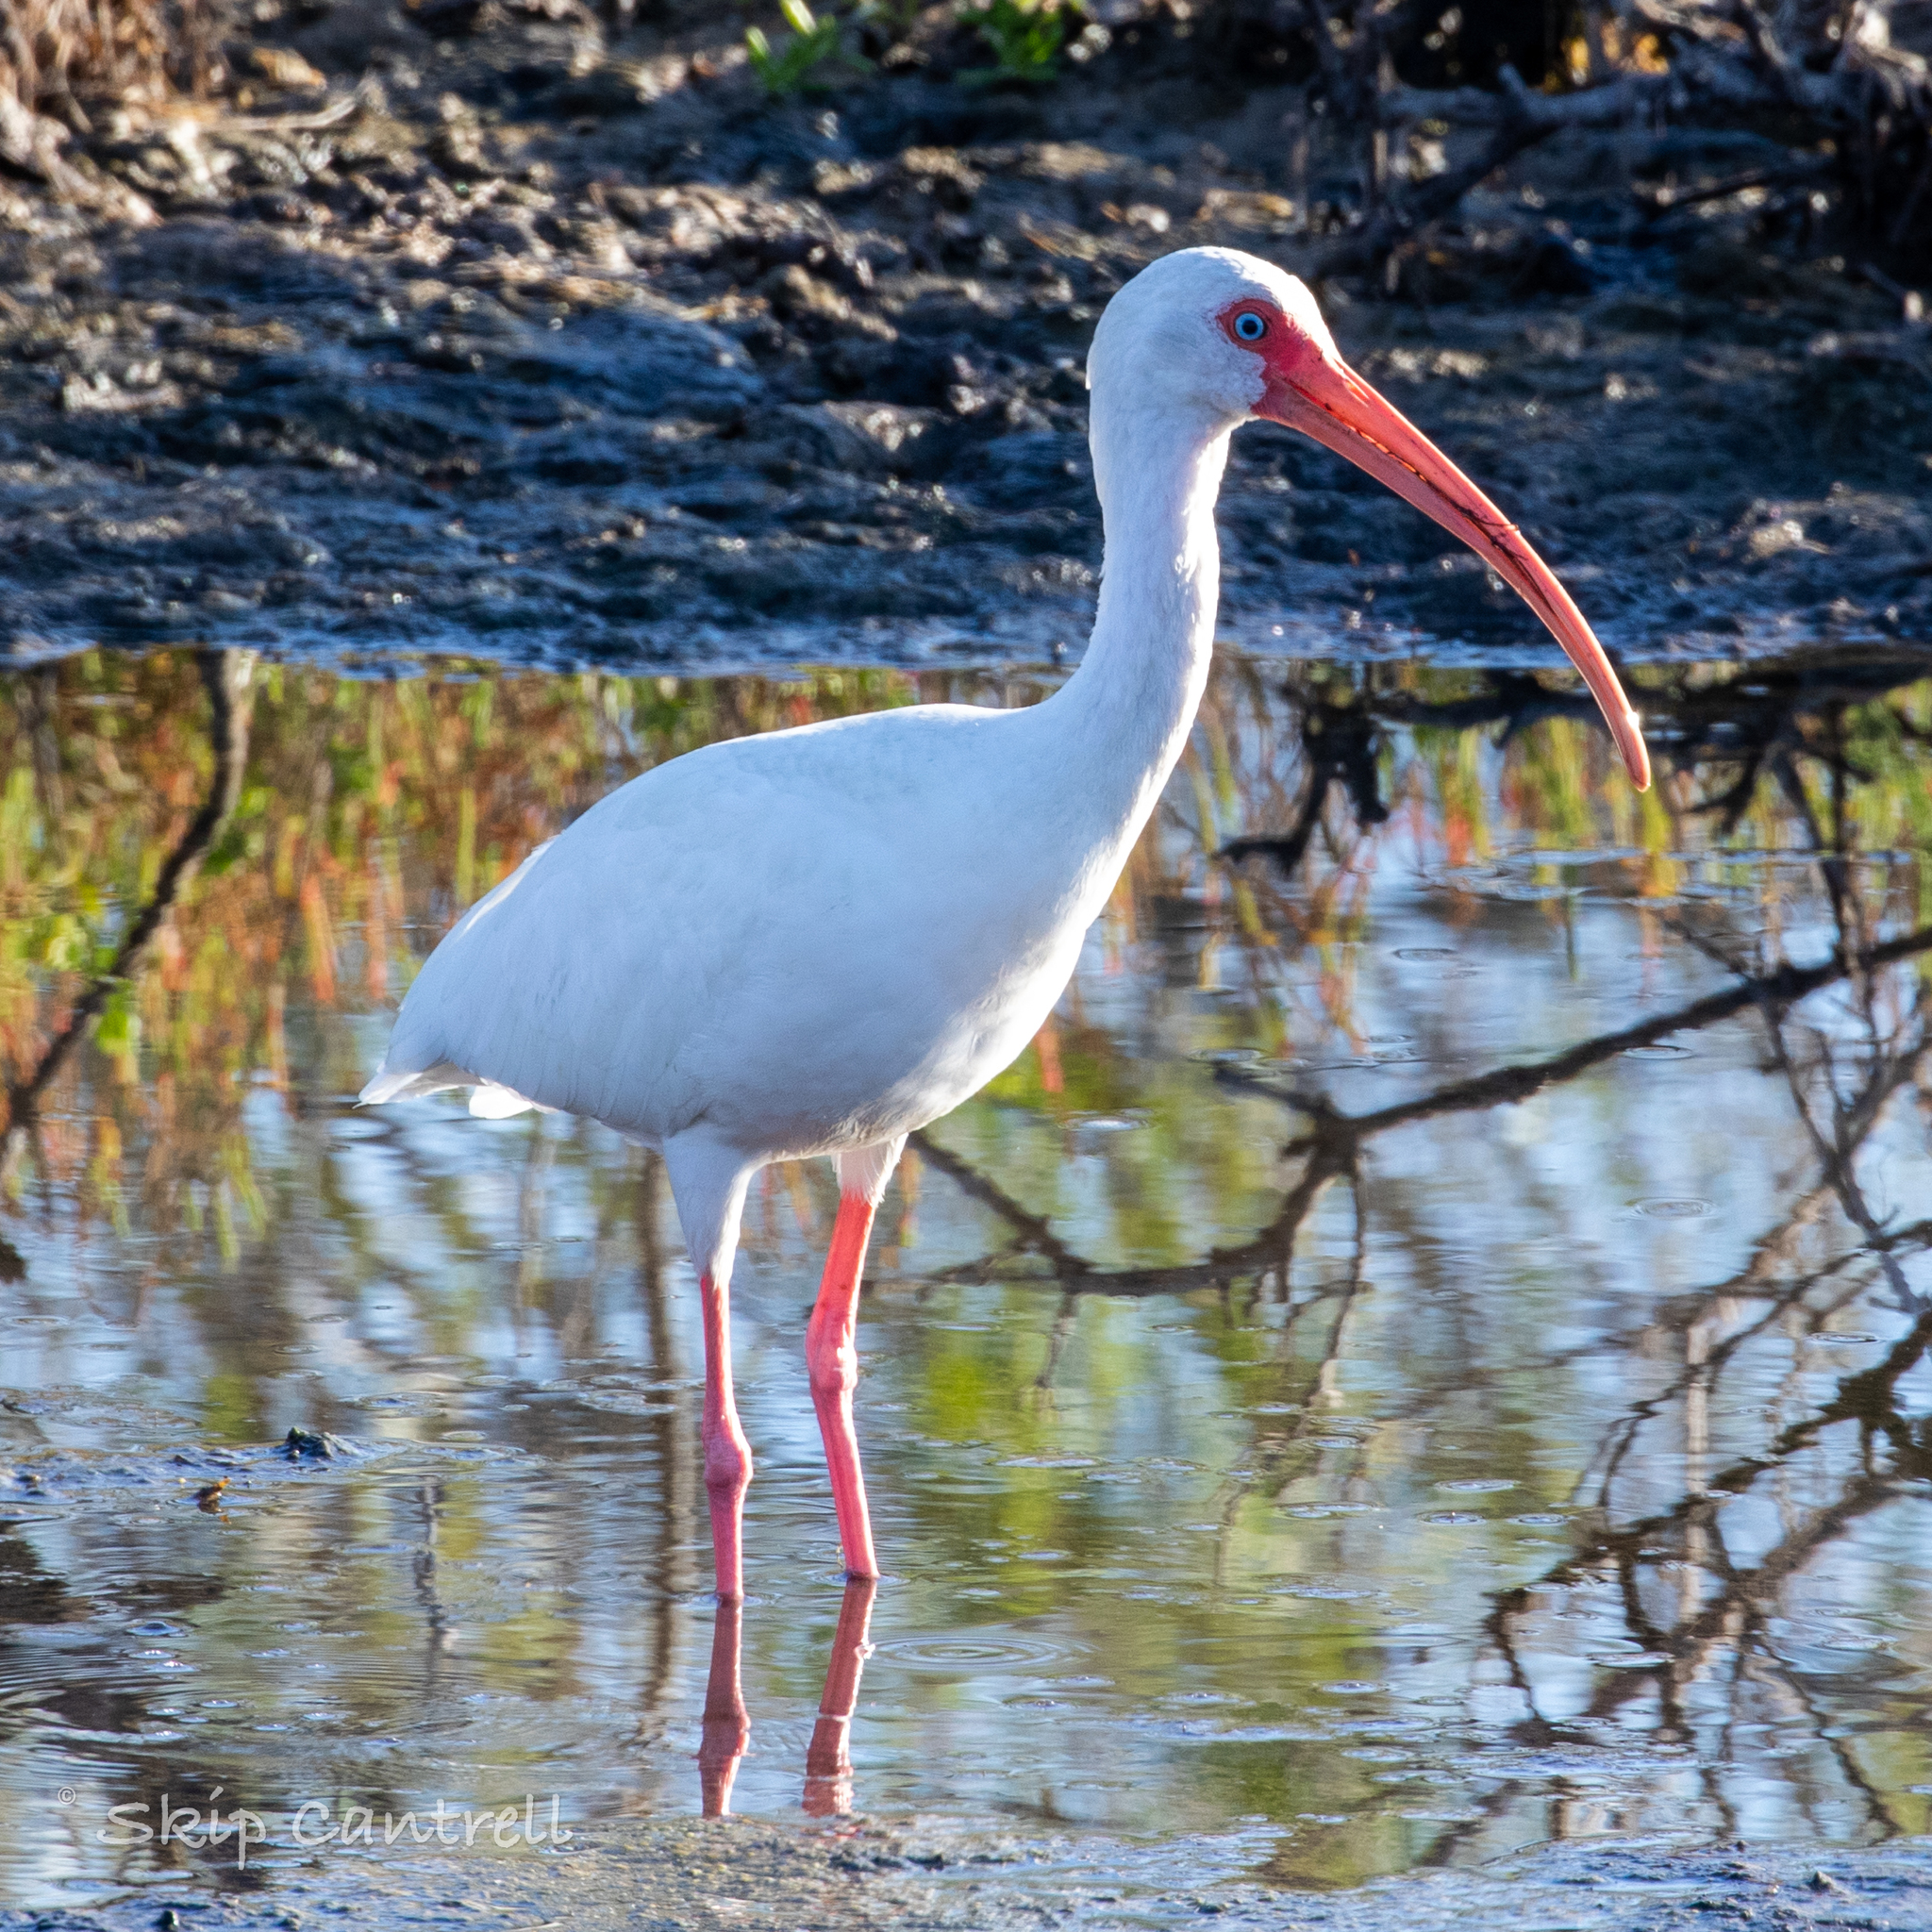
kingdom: Animalia
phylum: Chordata
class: Aves
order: Pelecaniformes
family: Threskiornithidae
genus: Eudocimus
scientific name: Eudocimus albus
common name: White ibis
